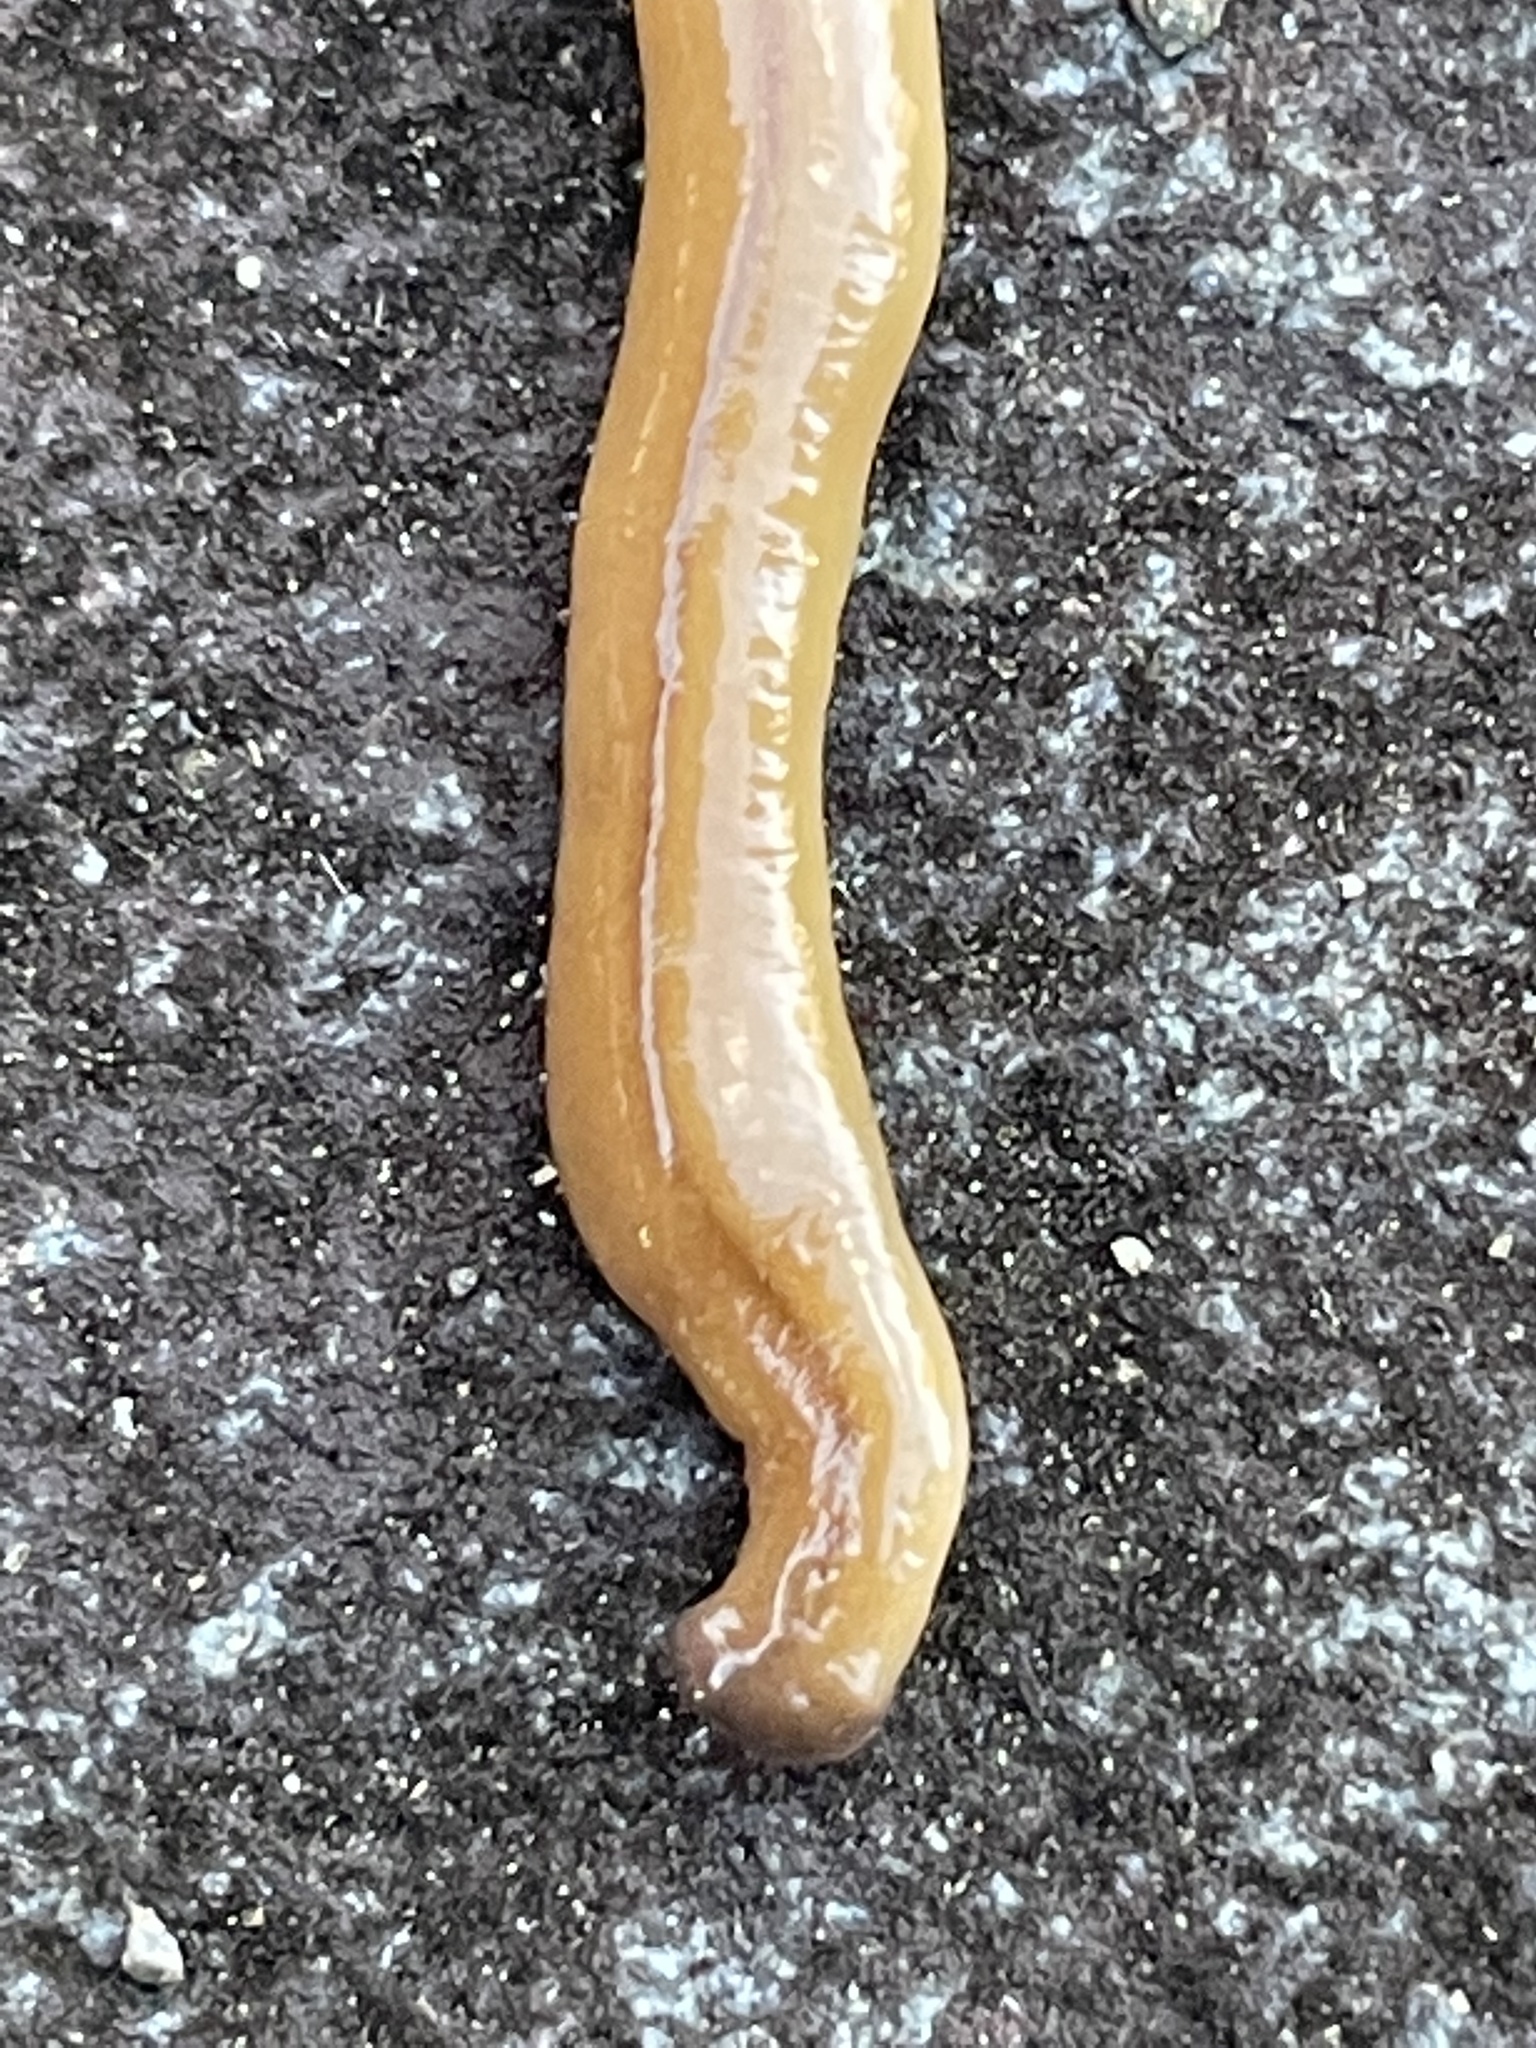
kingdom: Animalia
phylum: Platyhelminthes
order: Tricladida
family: Geoplanidae
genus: Bipalium
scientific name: Bipalium adventitium
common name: Land planarian
